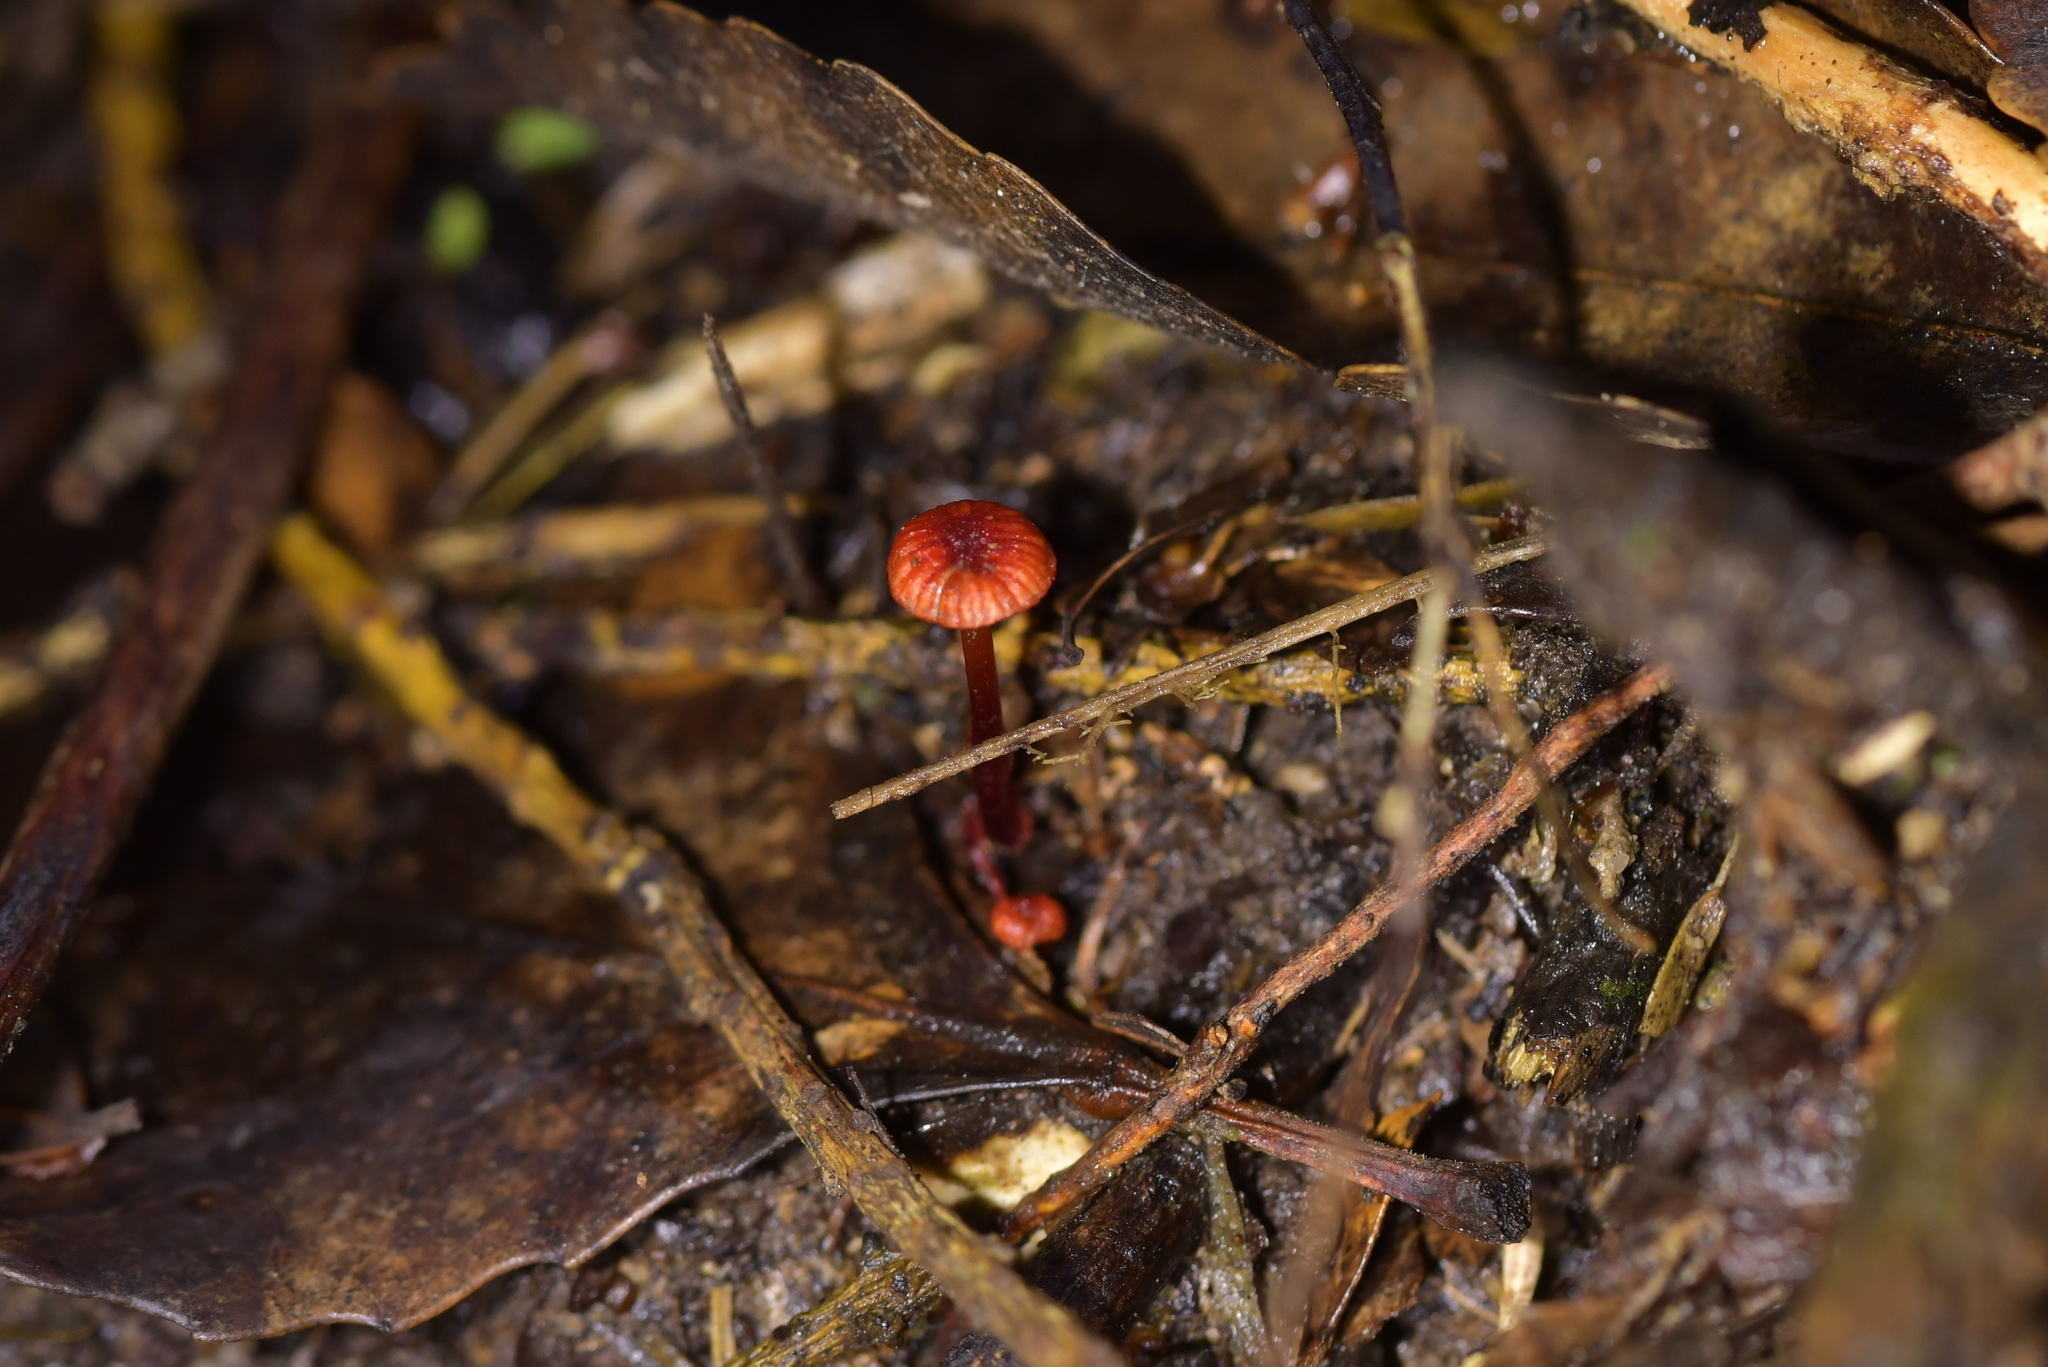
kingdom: Fungi
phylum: Basidiomycota
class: Agaricomycetes
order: Agaricales
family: Mycenaceae
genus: Cruentomycena
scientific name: Cruentomycena viscidocruenta
